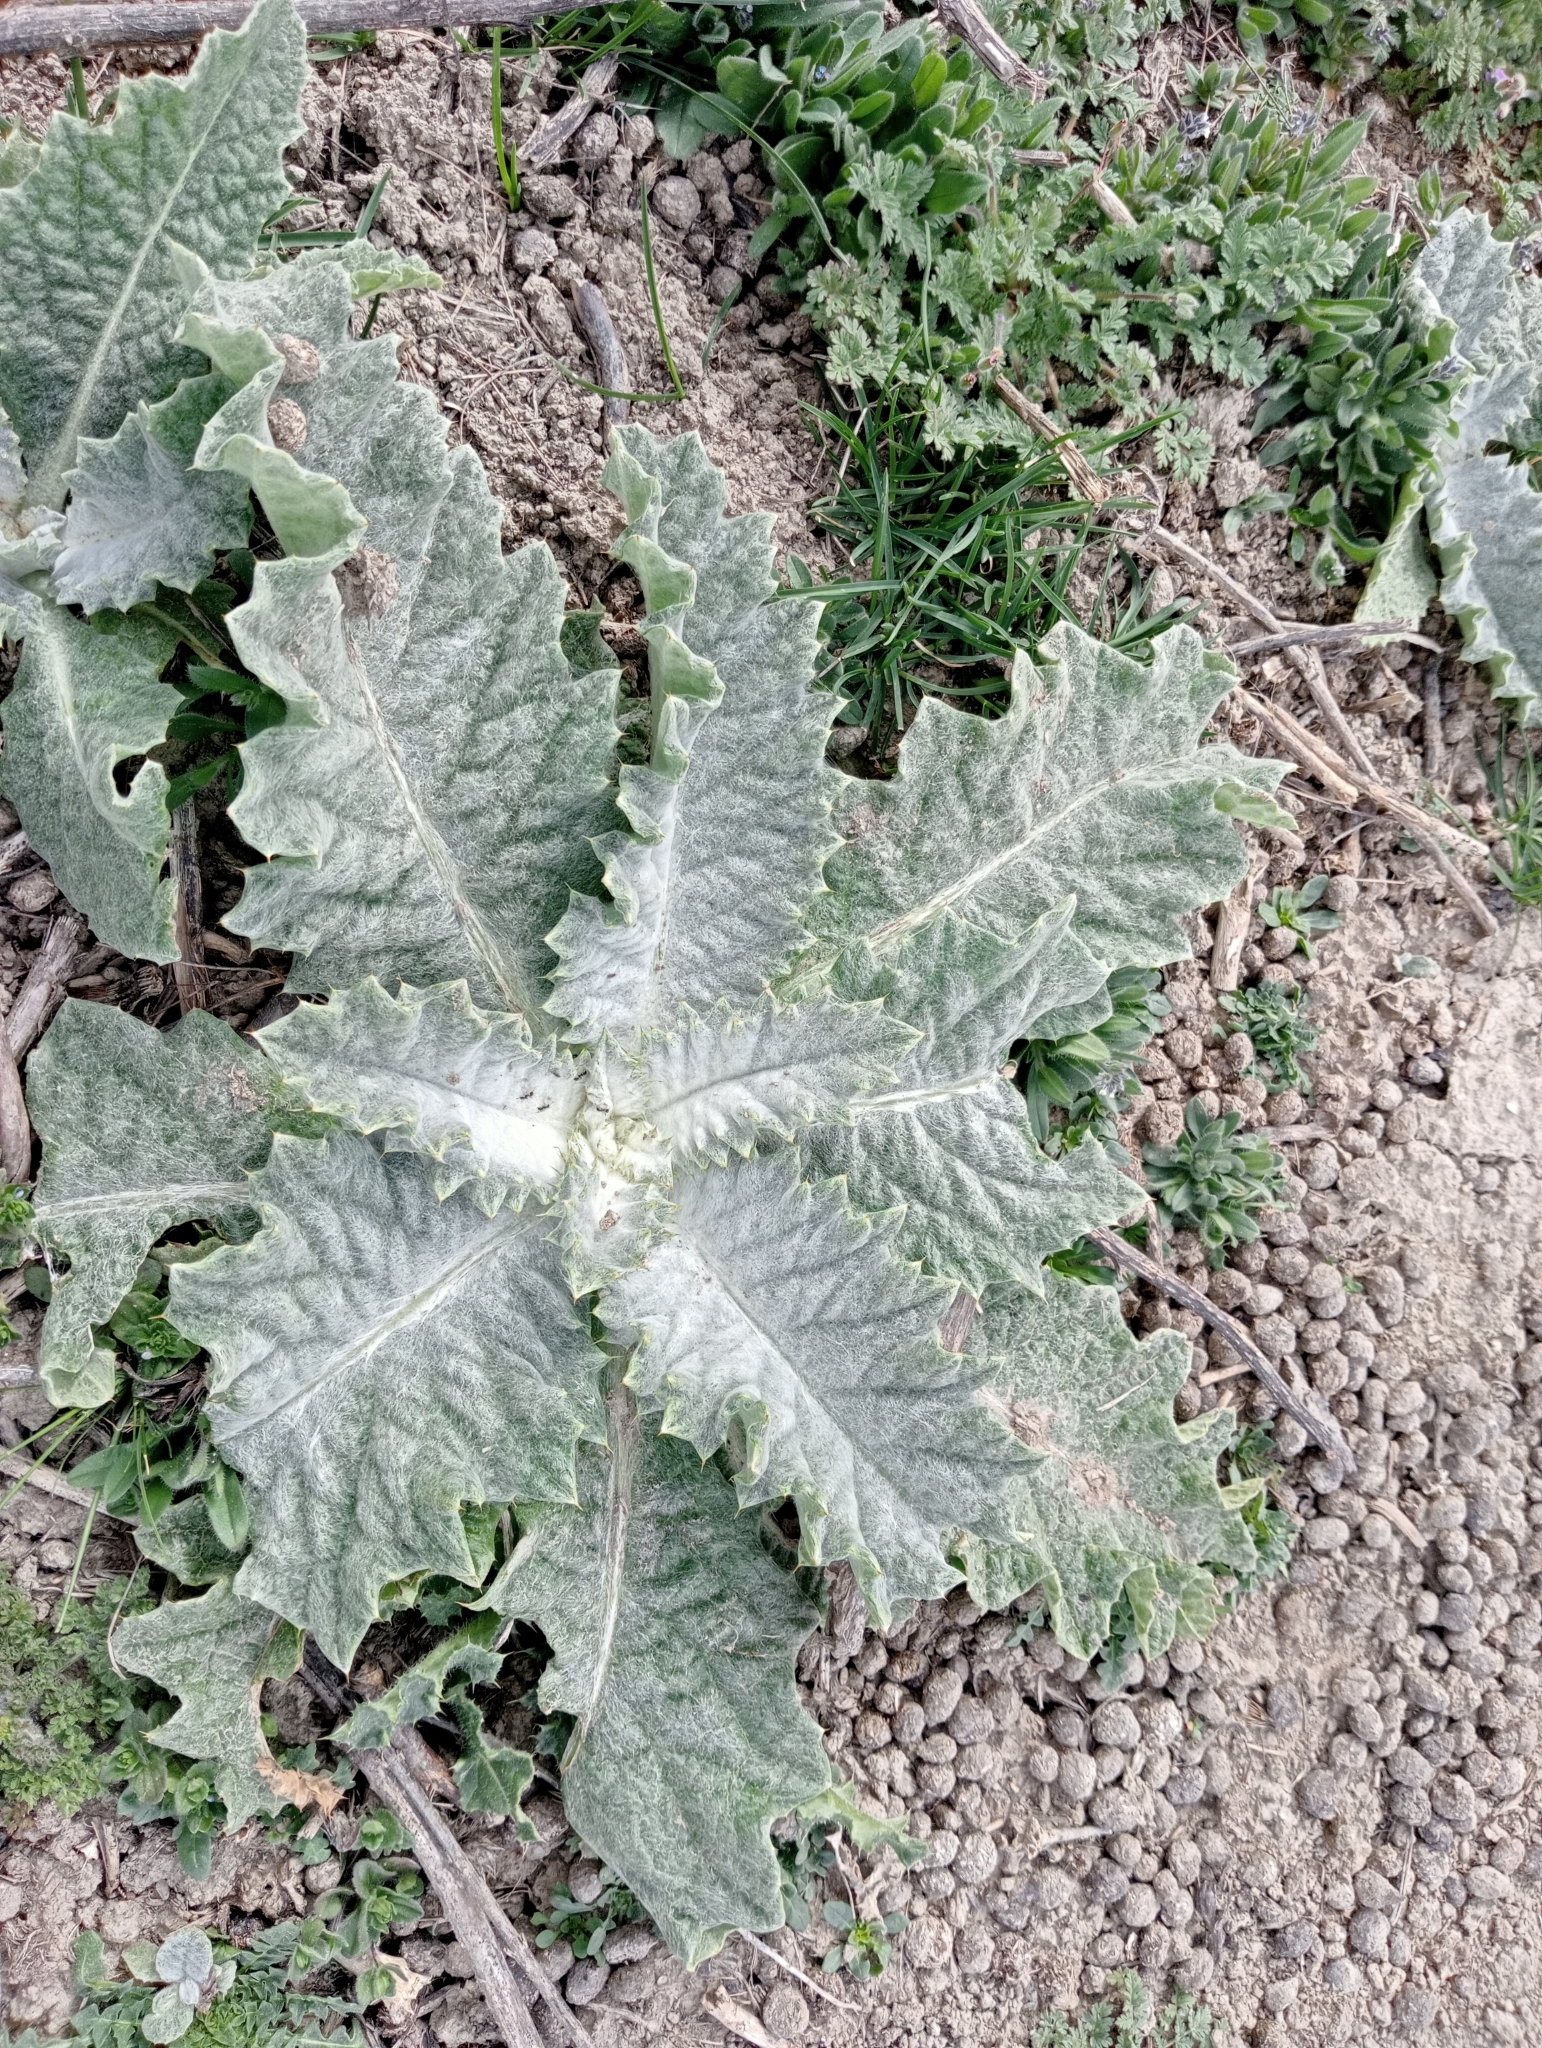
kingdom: Plantae
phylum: Tracheophyta
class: Magnoliopsida
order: Asterales
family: Asteraceae
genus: Onopordum
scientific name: Onopordum acanthium
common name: Scotch thistle
